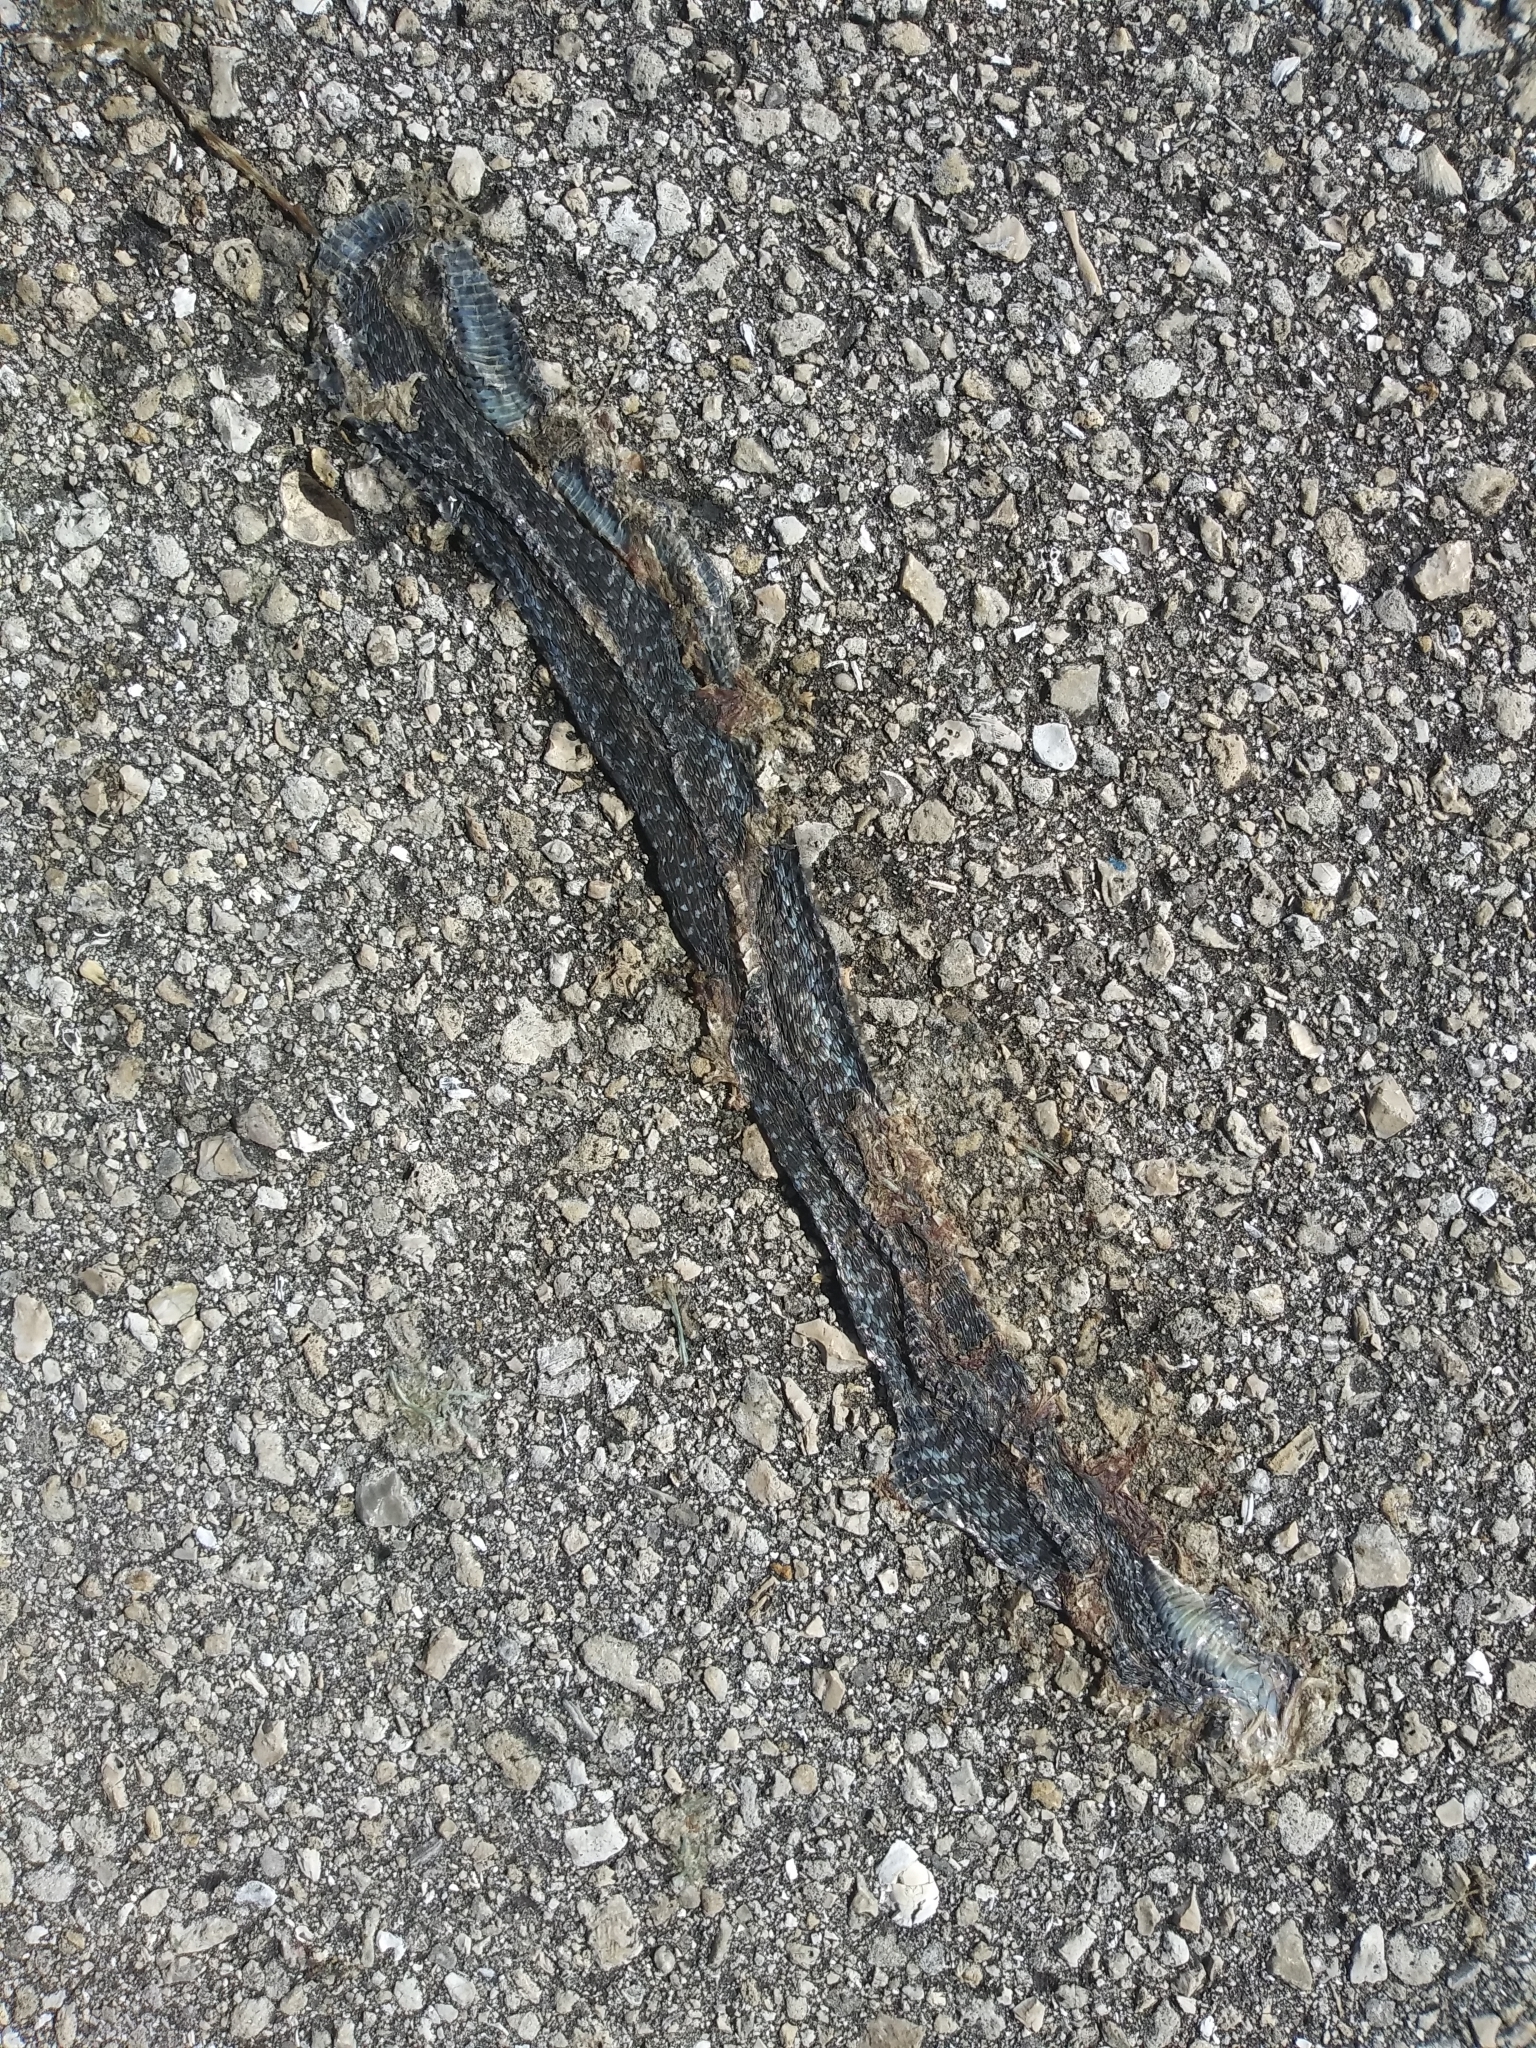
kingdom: Animalia
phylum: Chordata
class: Squamata
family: Colubridae
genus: Thamnophis
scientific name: Thamnophis sirtalis
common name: Common garter snake
